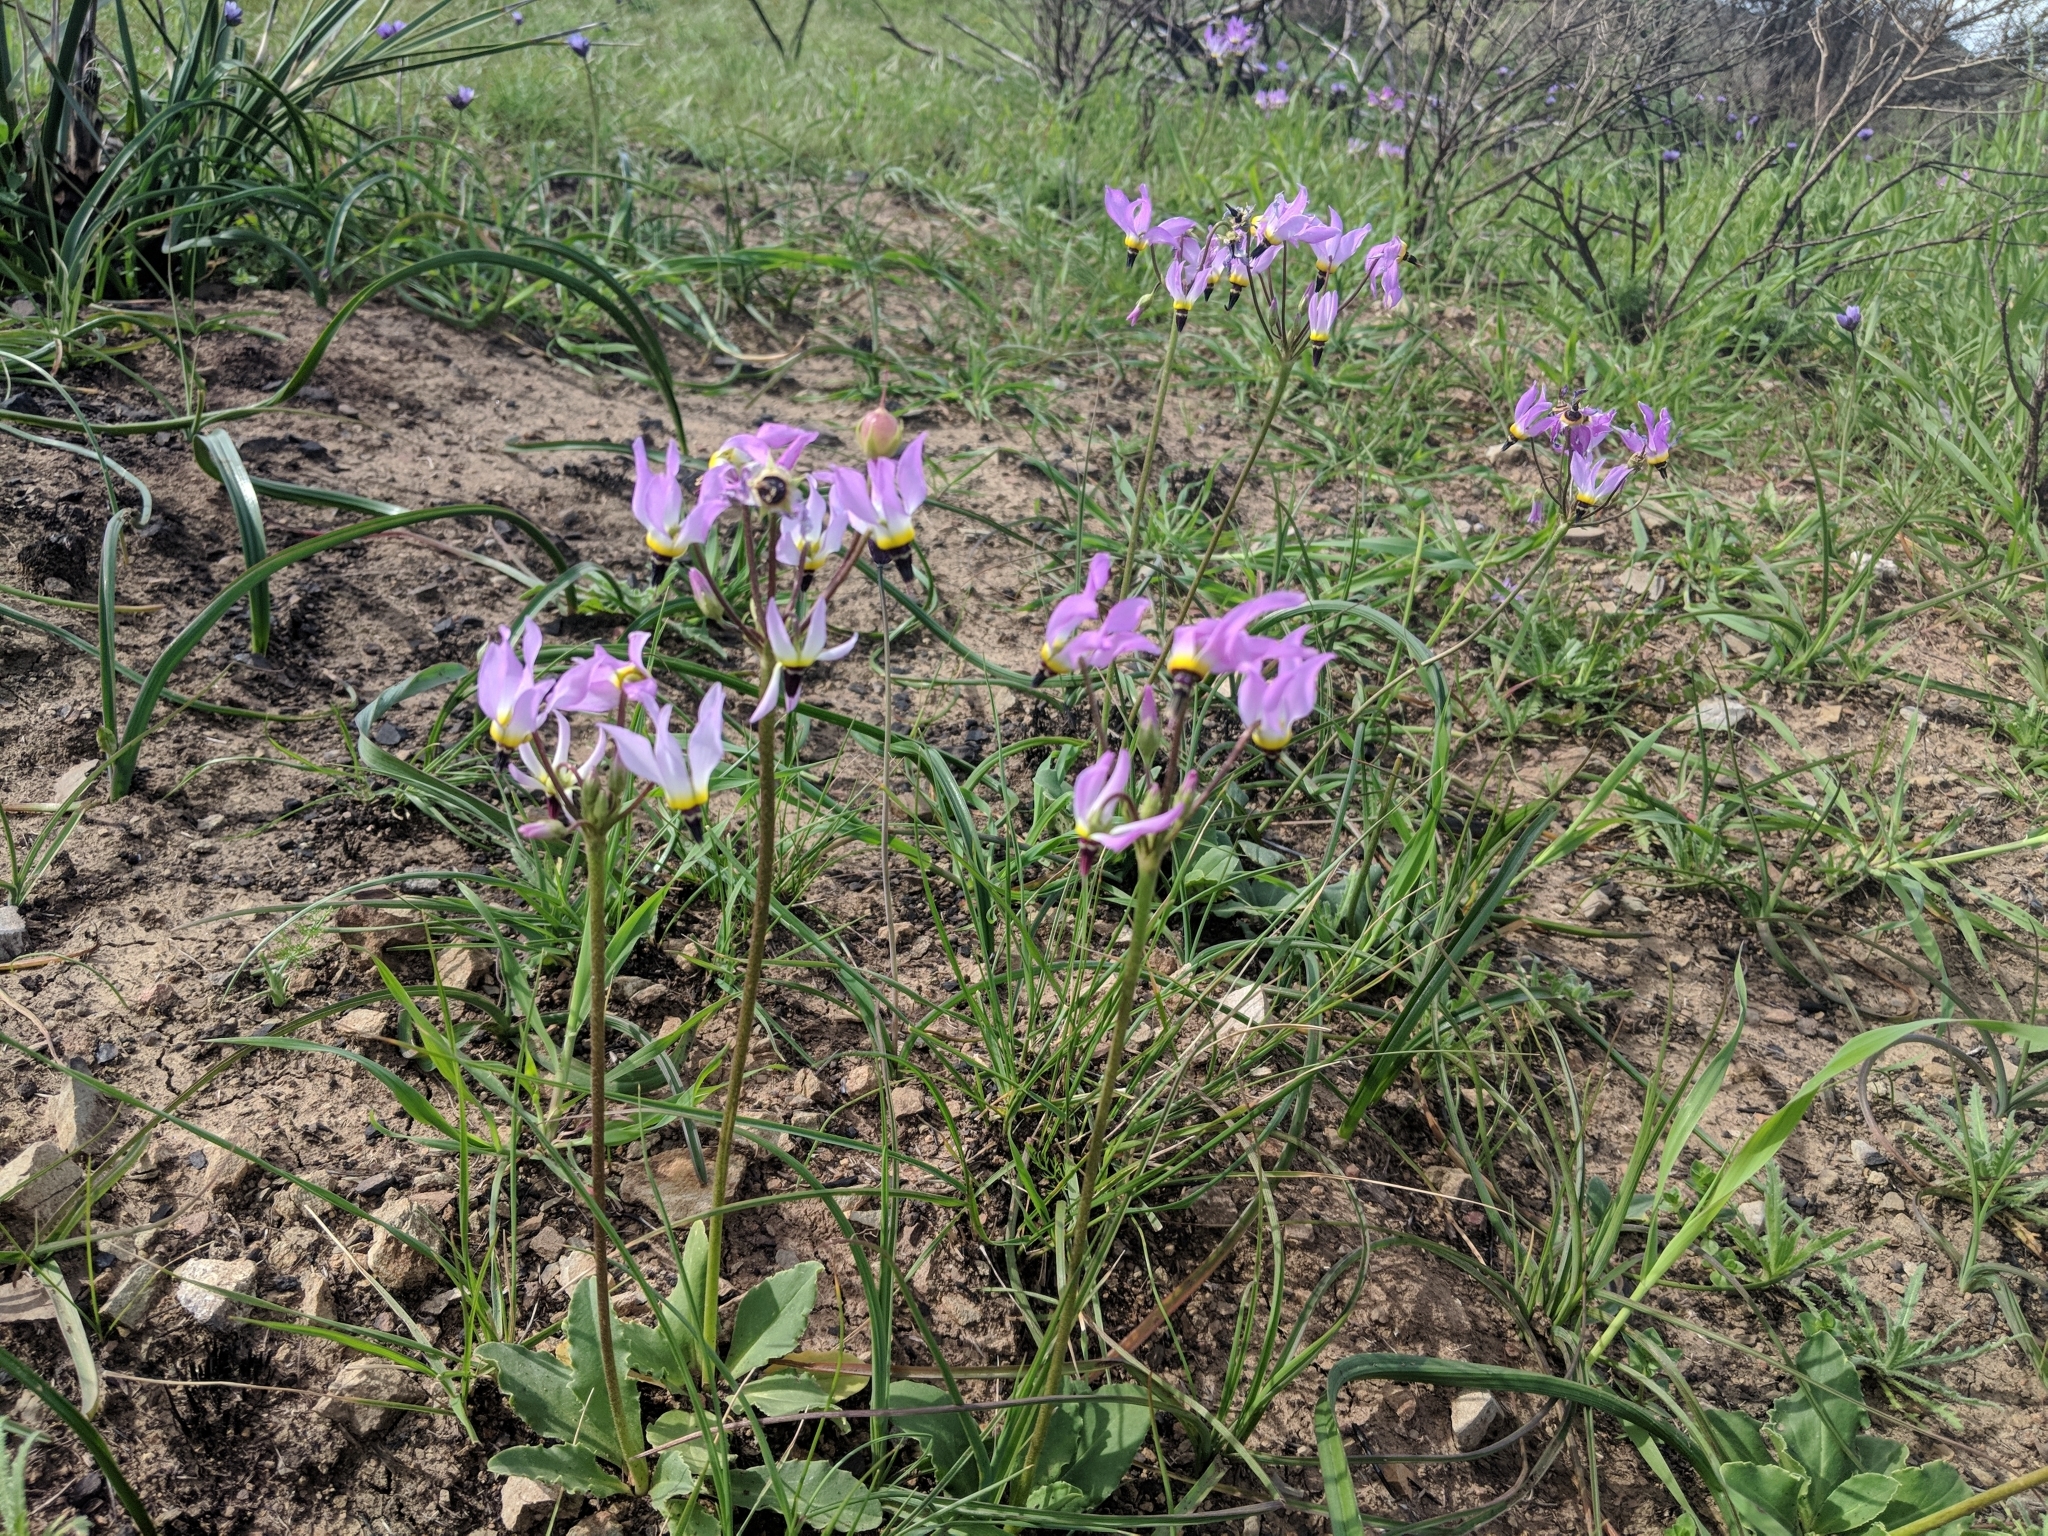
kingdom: Plantae
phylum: Tracheophyta
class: Magnoliopsida
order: Ericales
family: Primulaceae
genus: Dodecatheon
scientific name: Dodecatheon clevelandii
